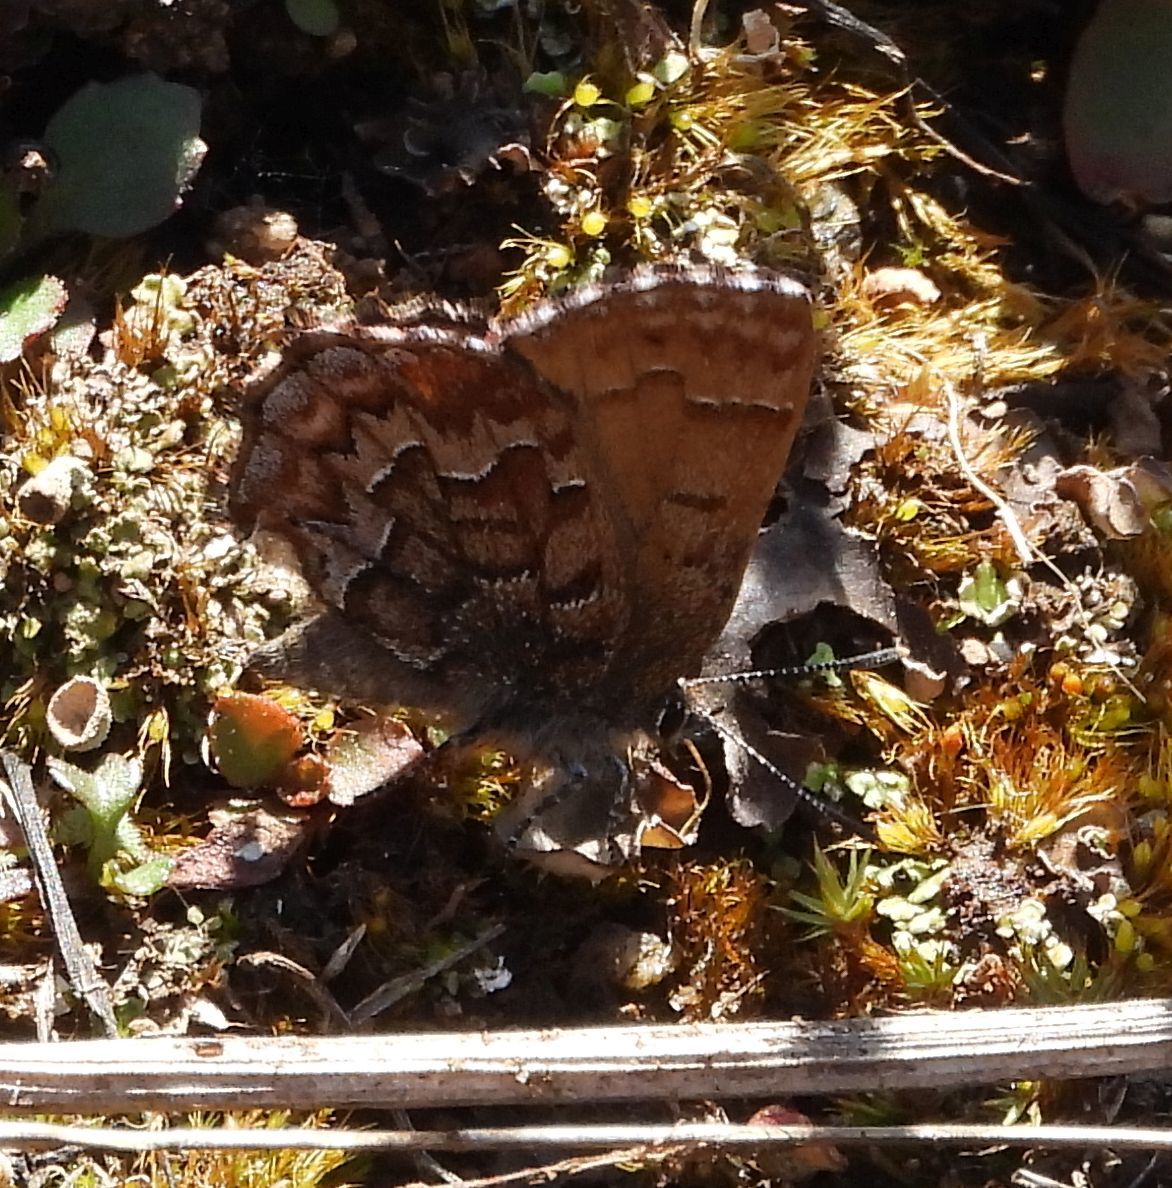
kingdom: Animalia
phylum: Arthropoda
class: Insecta
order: Lepidoptera
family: Lycaenidae
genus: Incisalia
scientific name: Incisalia niphon
